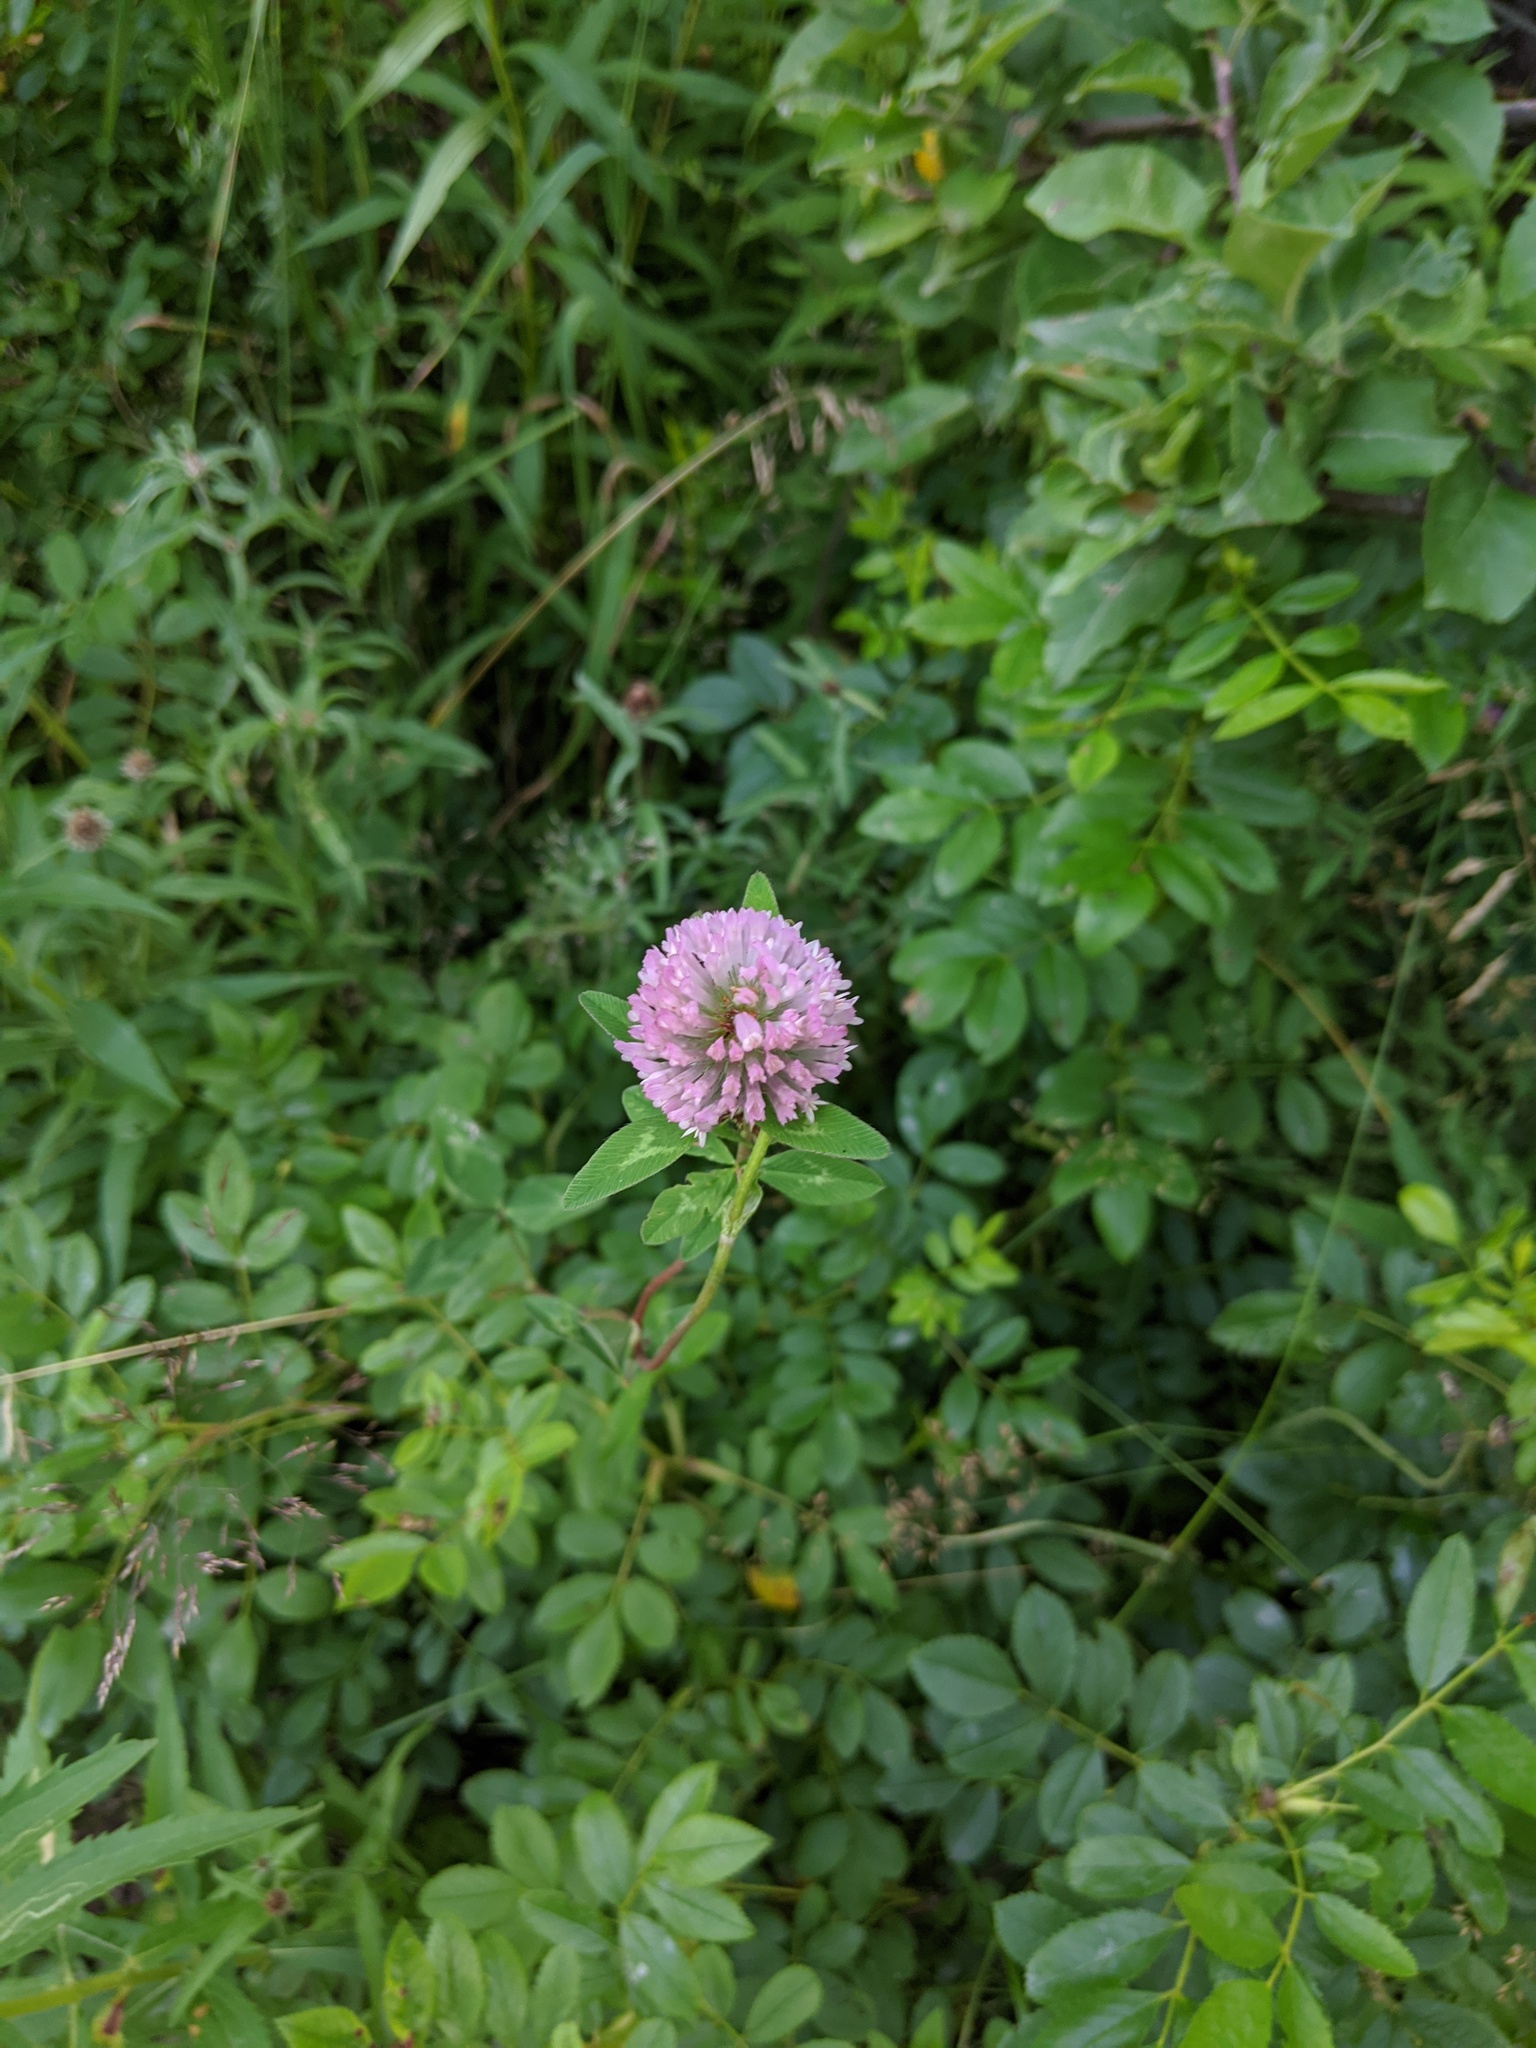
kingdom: Plantae
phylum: Tracheophyta
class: Magnoliopsida
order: Fabales
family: Fabaceae
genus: Trifolium
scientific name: Trifolium pratense
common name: Red clover
